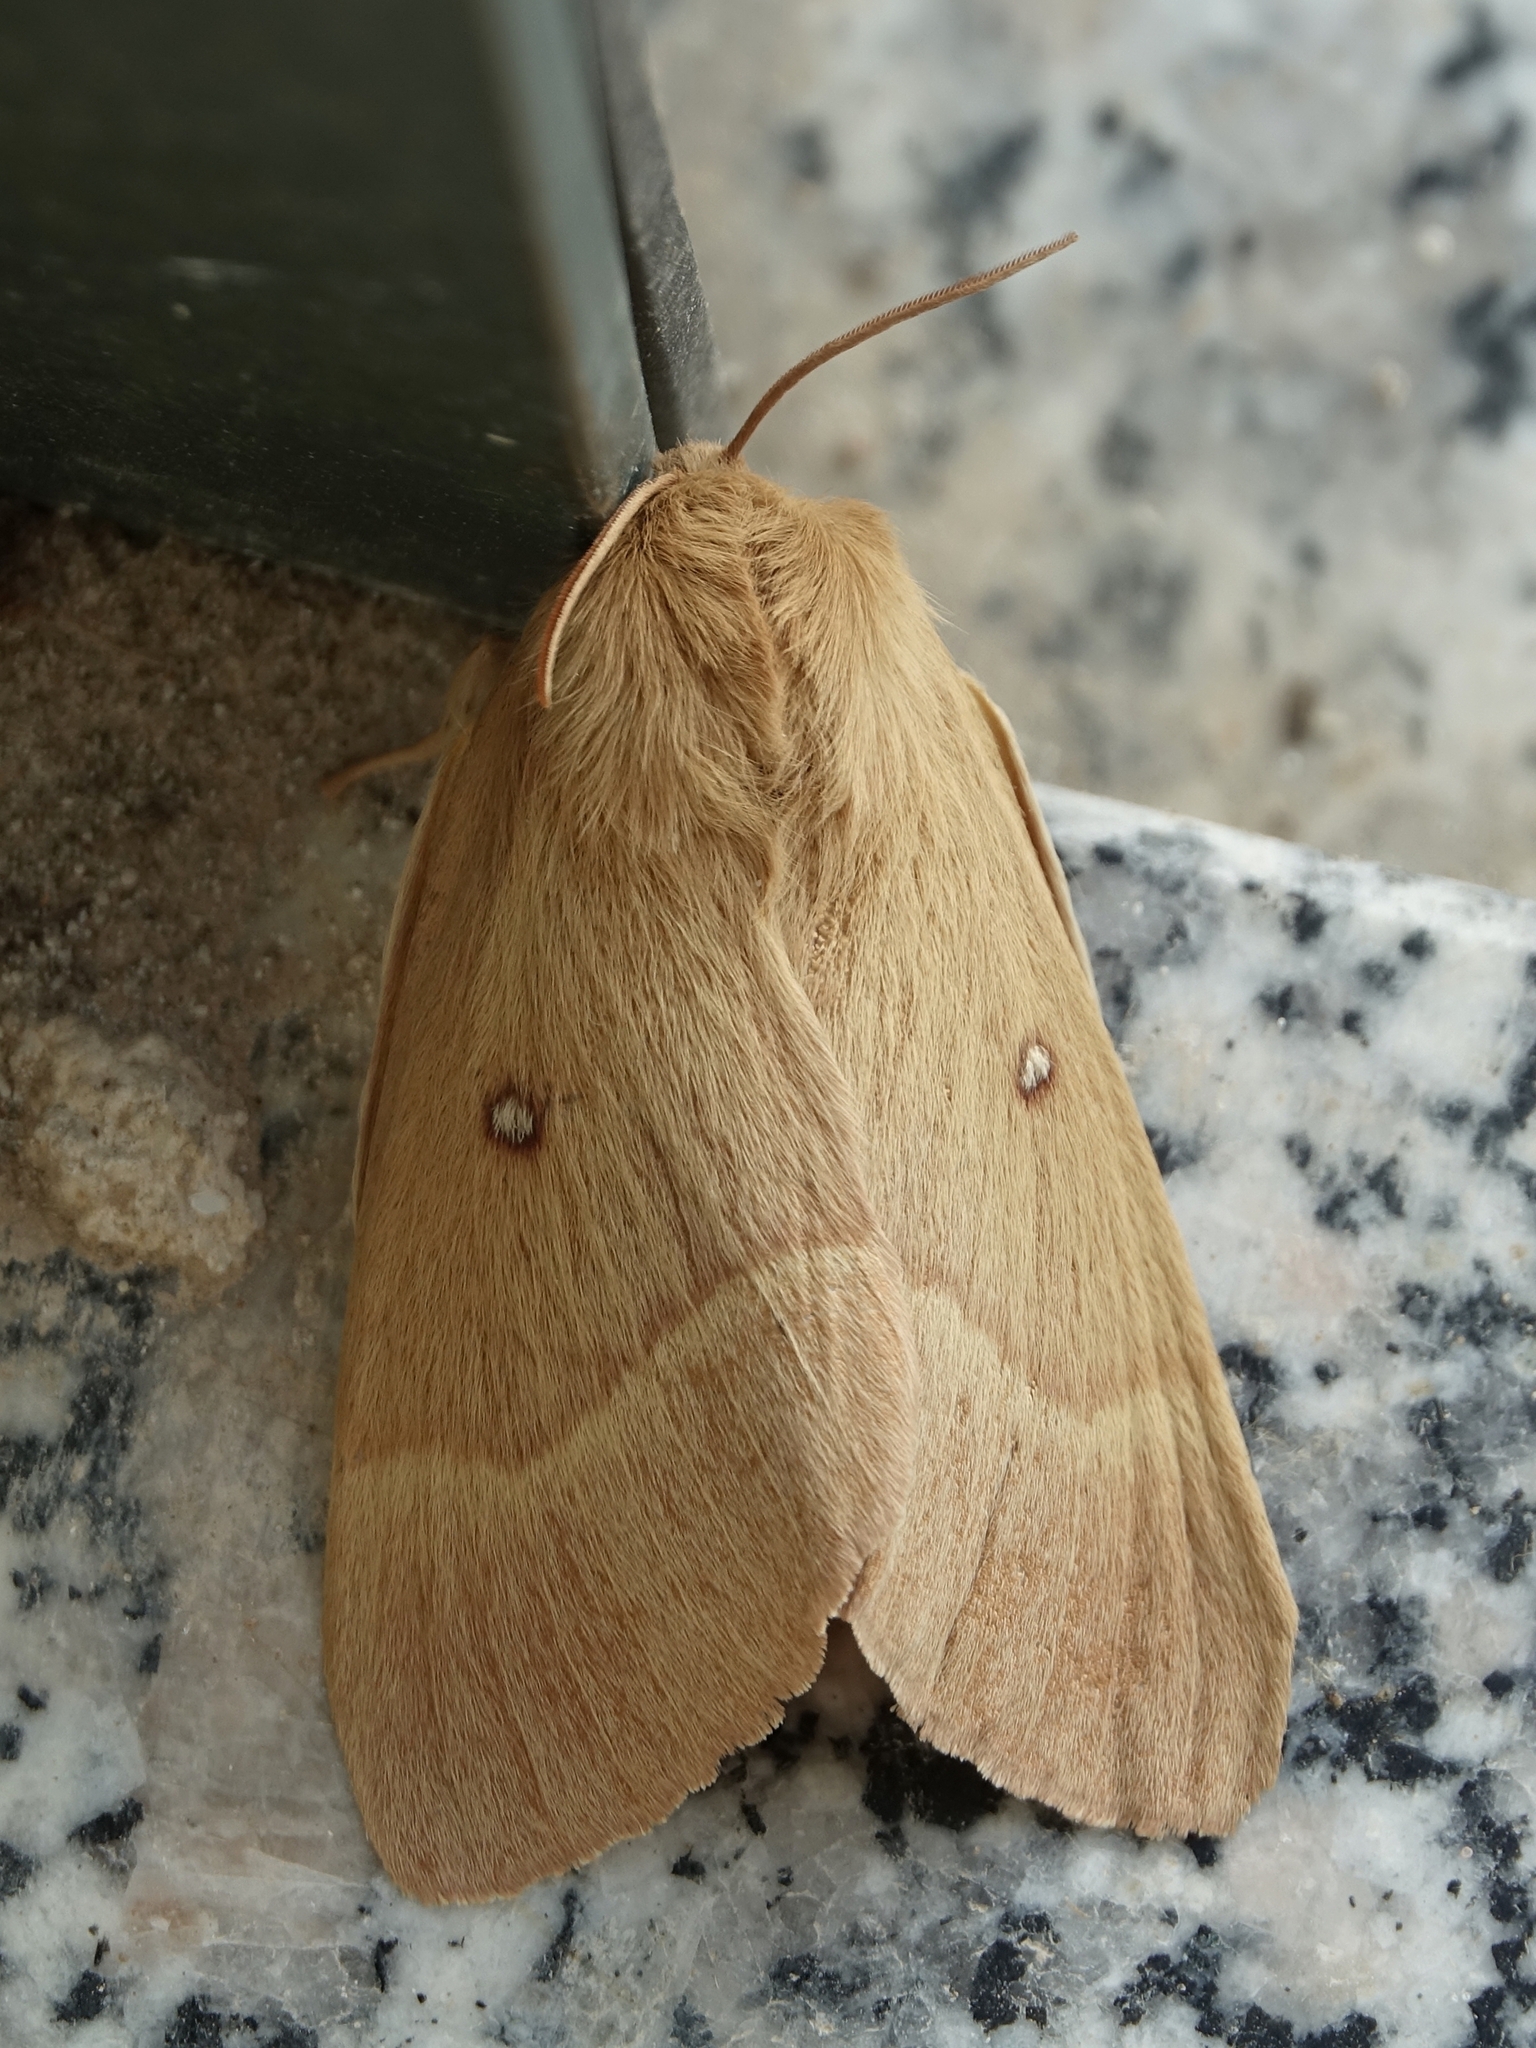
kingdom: Animalia
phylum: Arthropoda
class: Insecta
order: Lepidoptera
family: Lasiocampidae
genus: Lasiocampa
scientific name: Lasiocampa quercus
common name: Oak eggar
